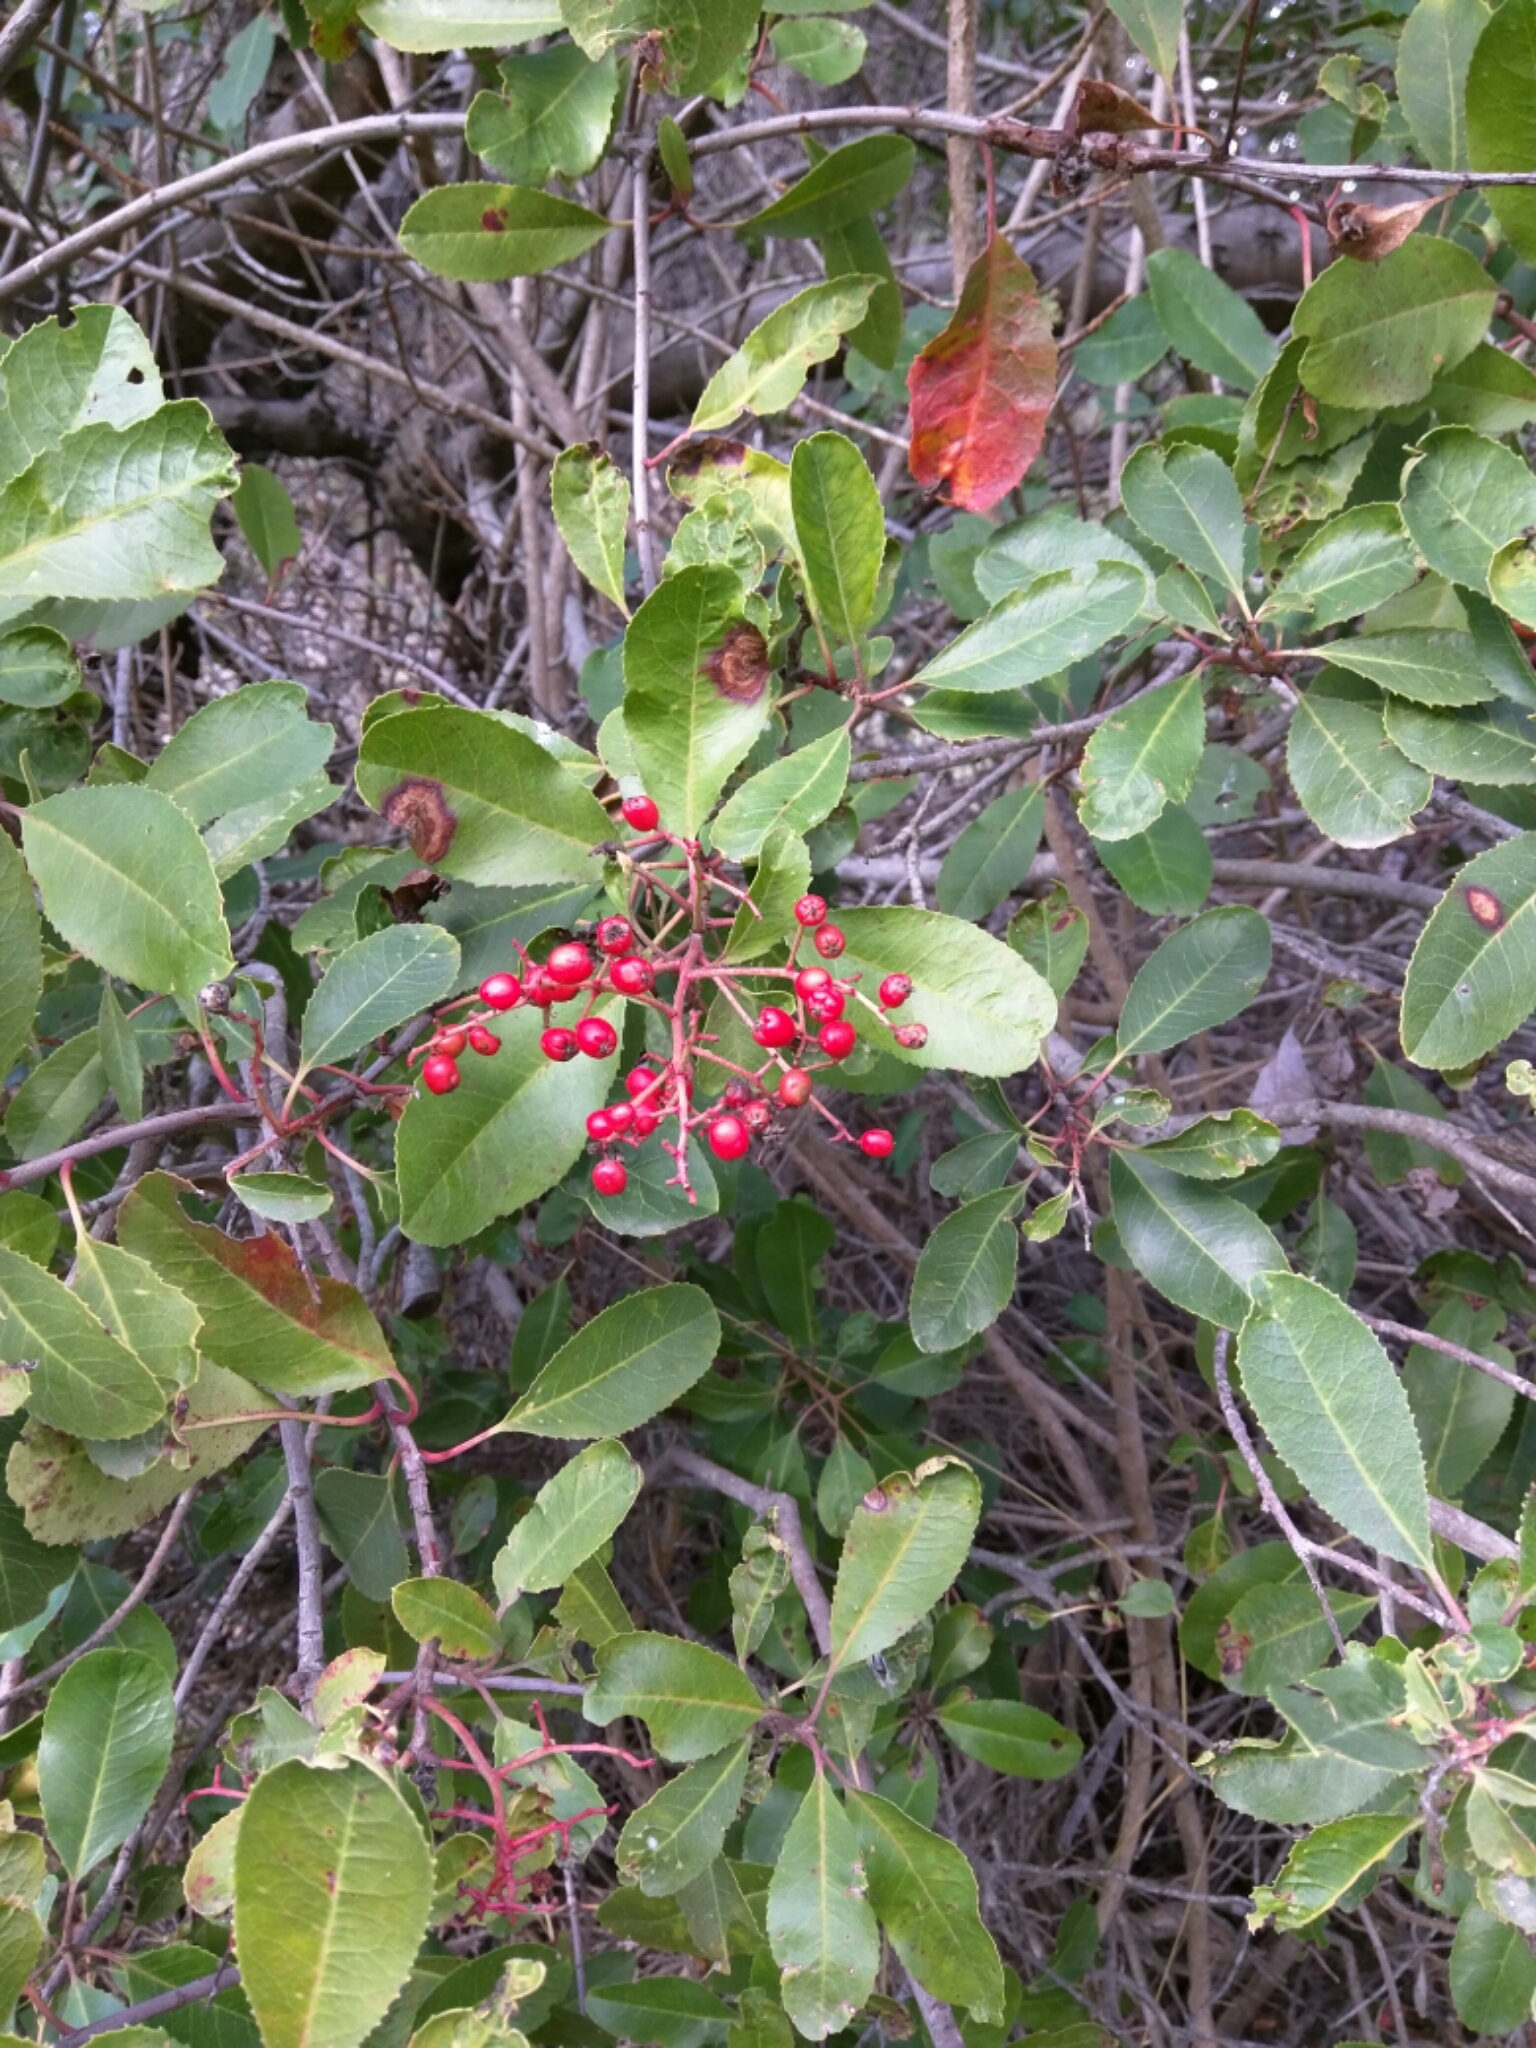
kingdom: Plantae
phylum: Tracheophyta
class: Magnoliopsida
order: Rosales
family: Rosaceae
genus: Heteromeles
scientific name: Heteromeles arbutifolia
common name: California-holly
